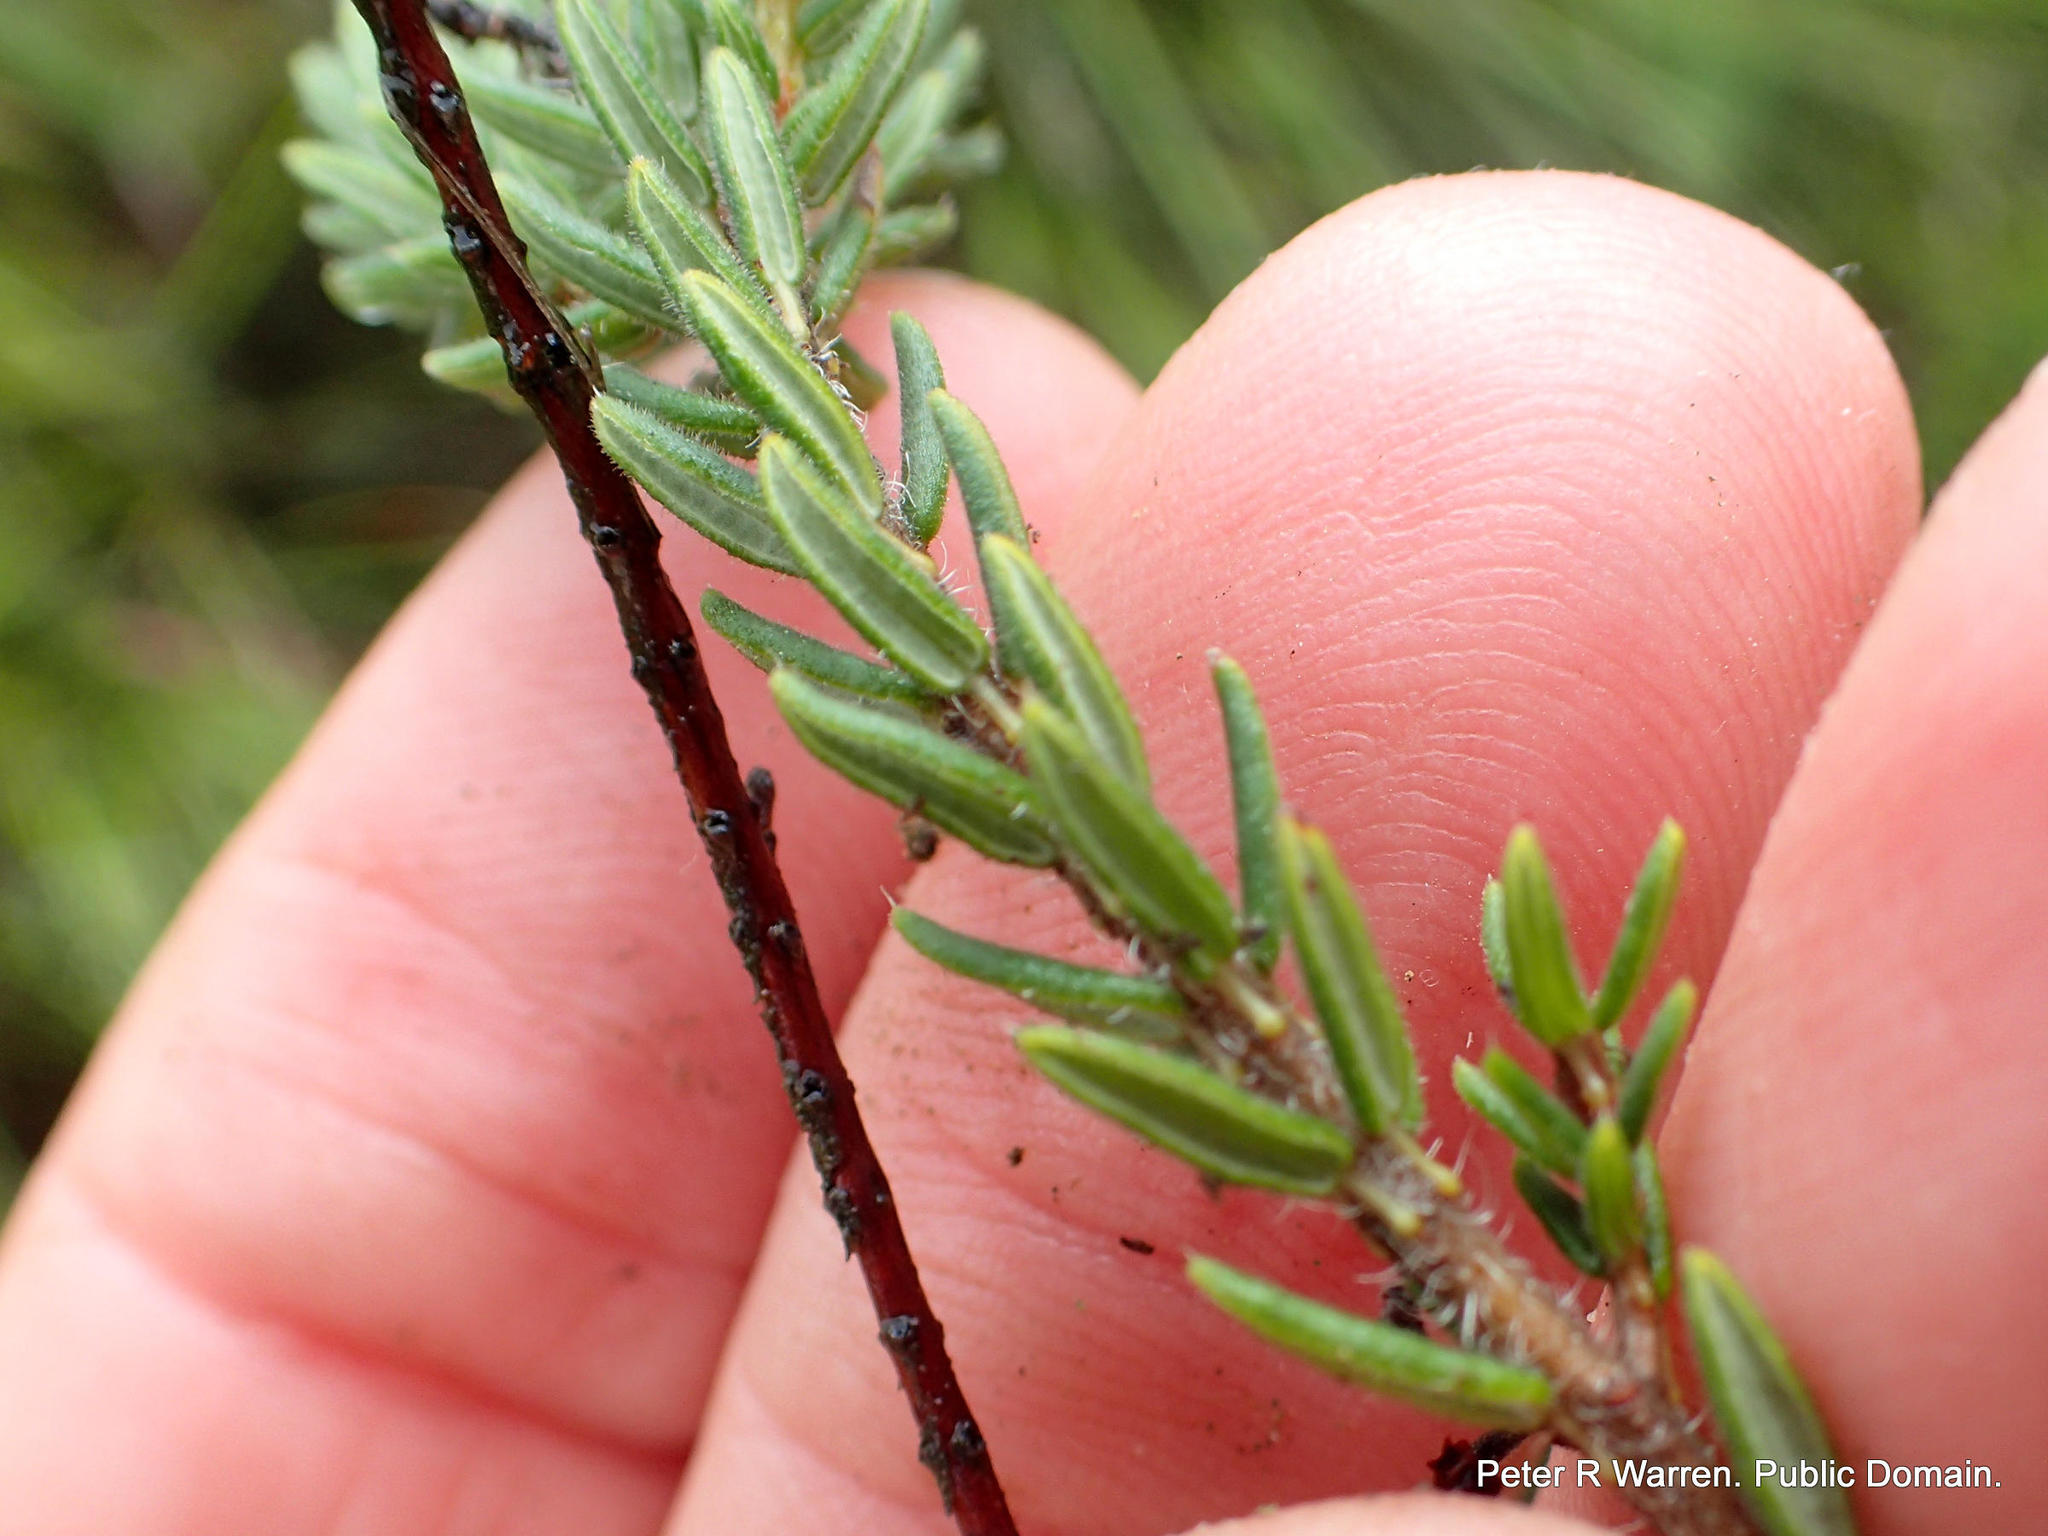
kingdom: Plantae
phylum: Tracheophyta
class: Magnoliopsida
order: Ericales
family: Ericaceae
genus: Erica
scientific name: Erica oatesii
